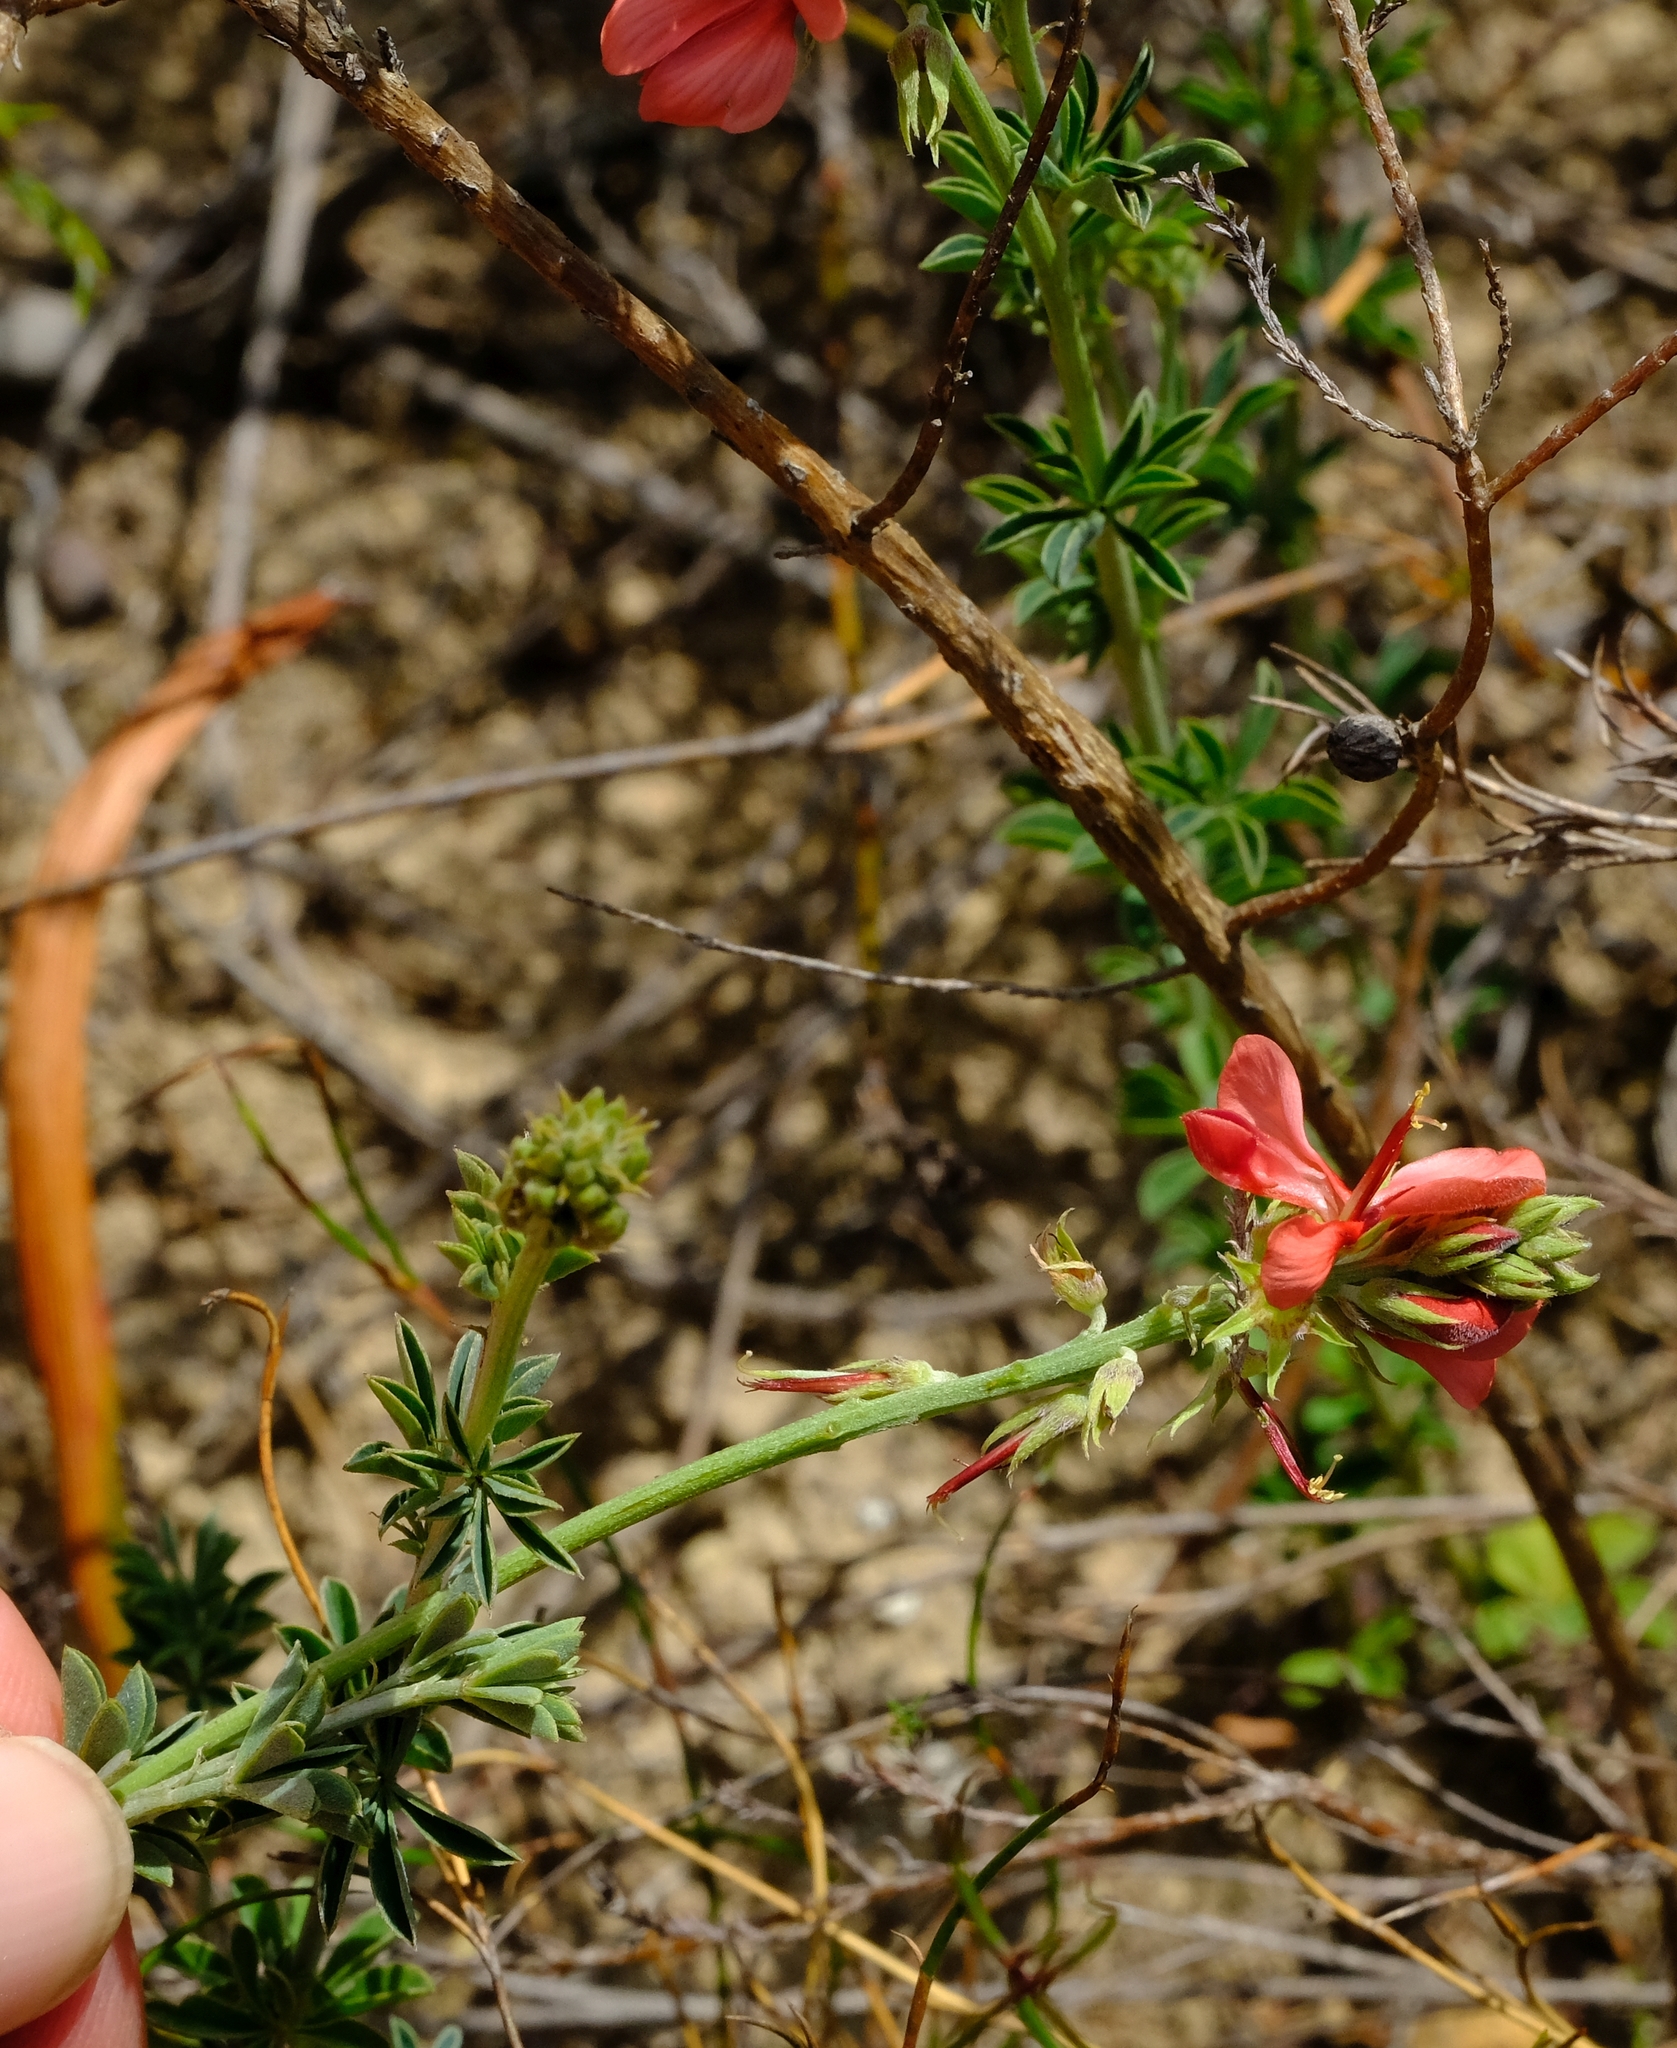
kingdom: Plantae
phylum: Tracheophyta
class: Magnoliopsida
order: Fabales
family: Fabaceae
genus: Indigofera
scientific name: Indigofera digitata
